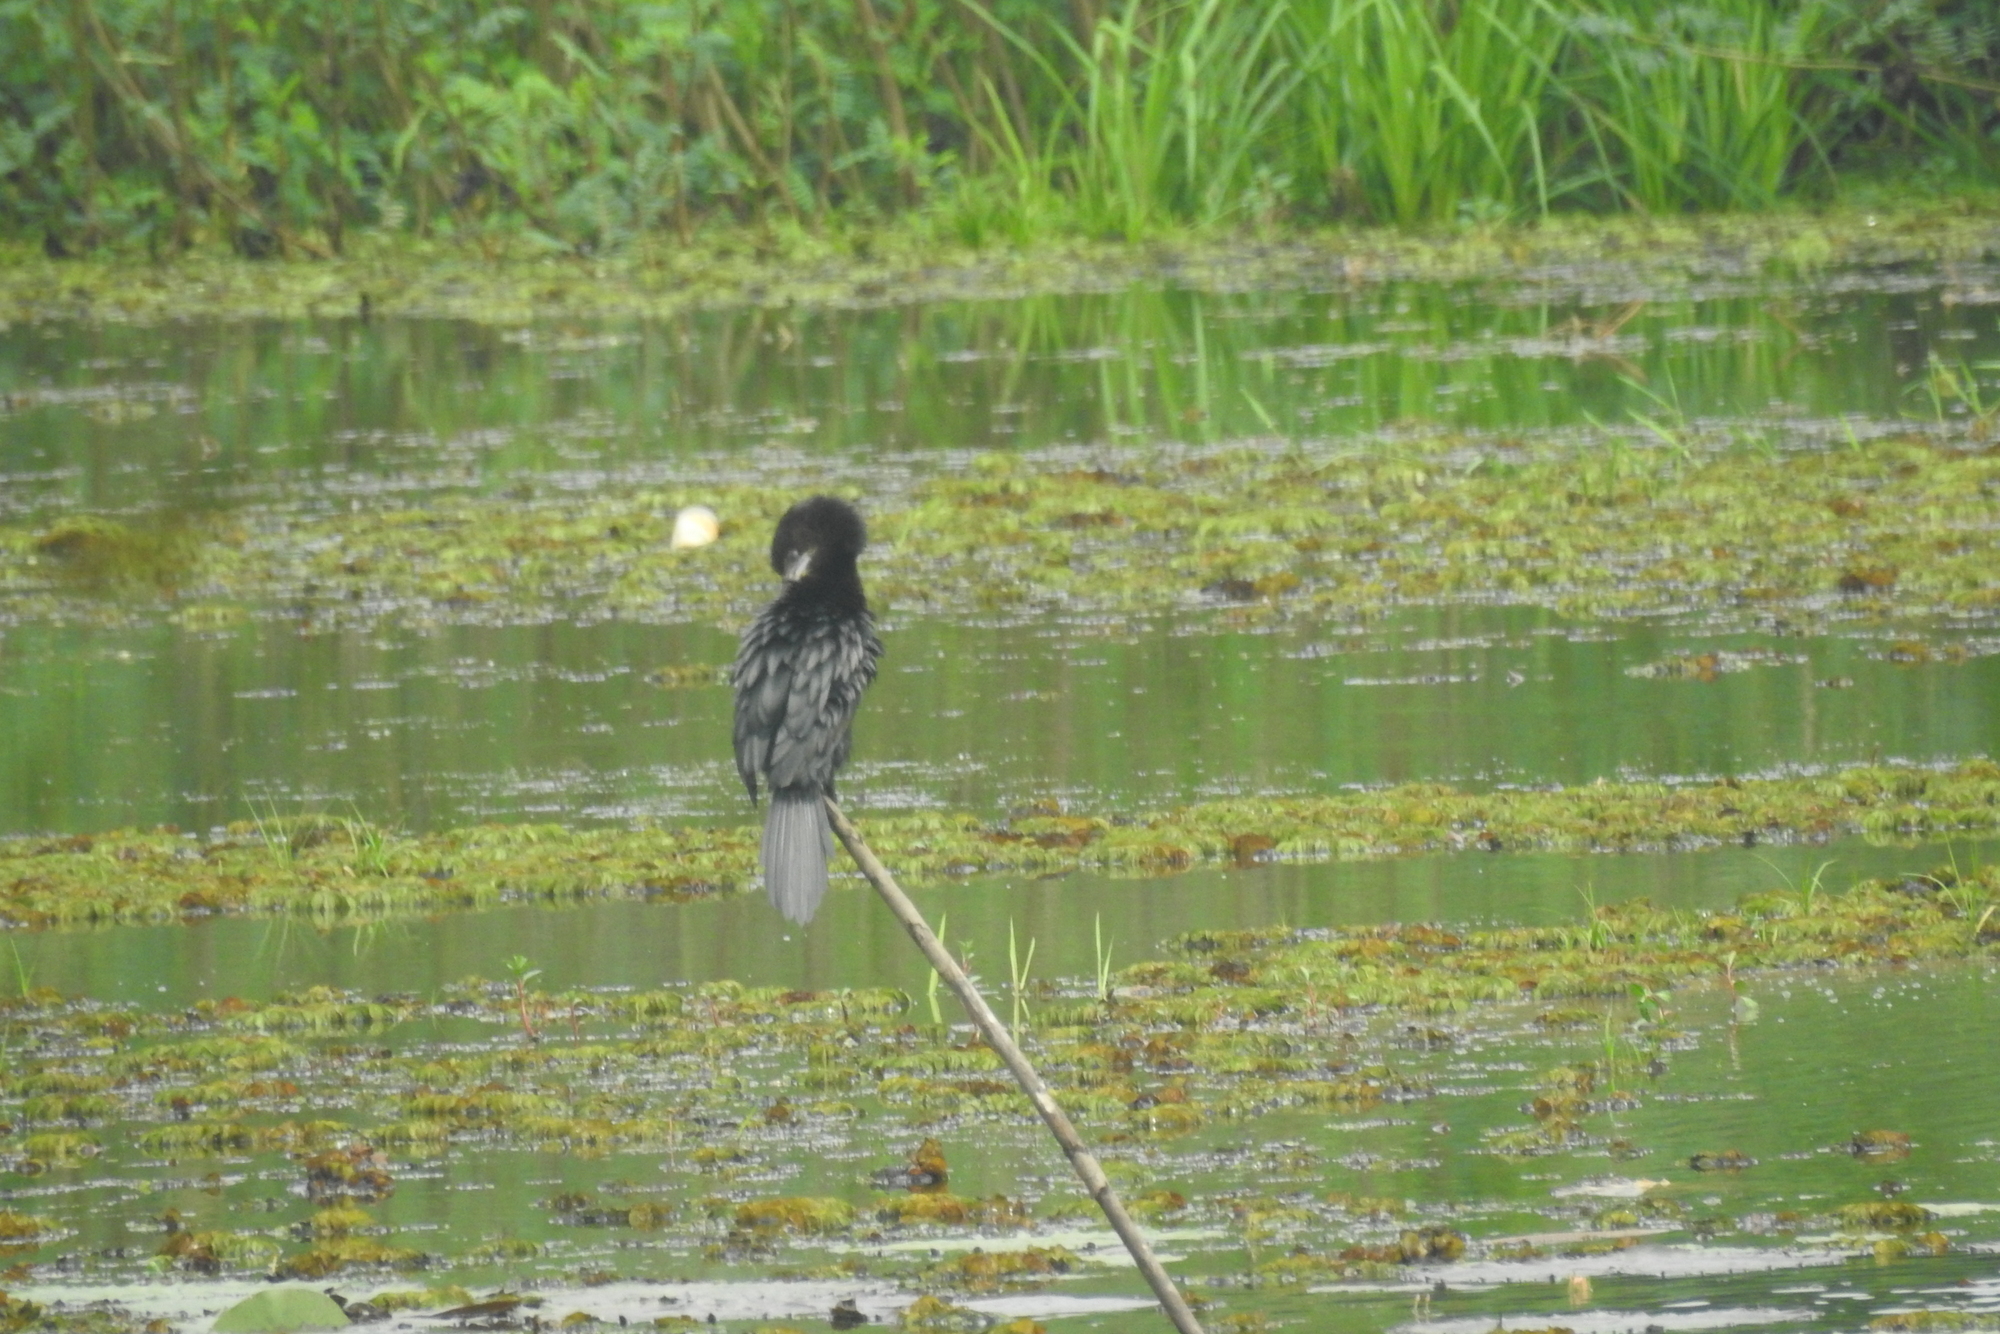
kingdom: Animalia
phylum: Chordata
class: Aves
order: Suliformes
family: Phalacrocoracidae
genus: Microcarbo
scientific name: Microcarbo niger
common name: Little cormorant
